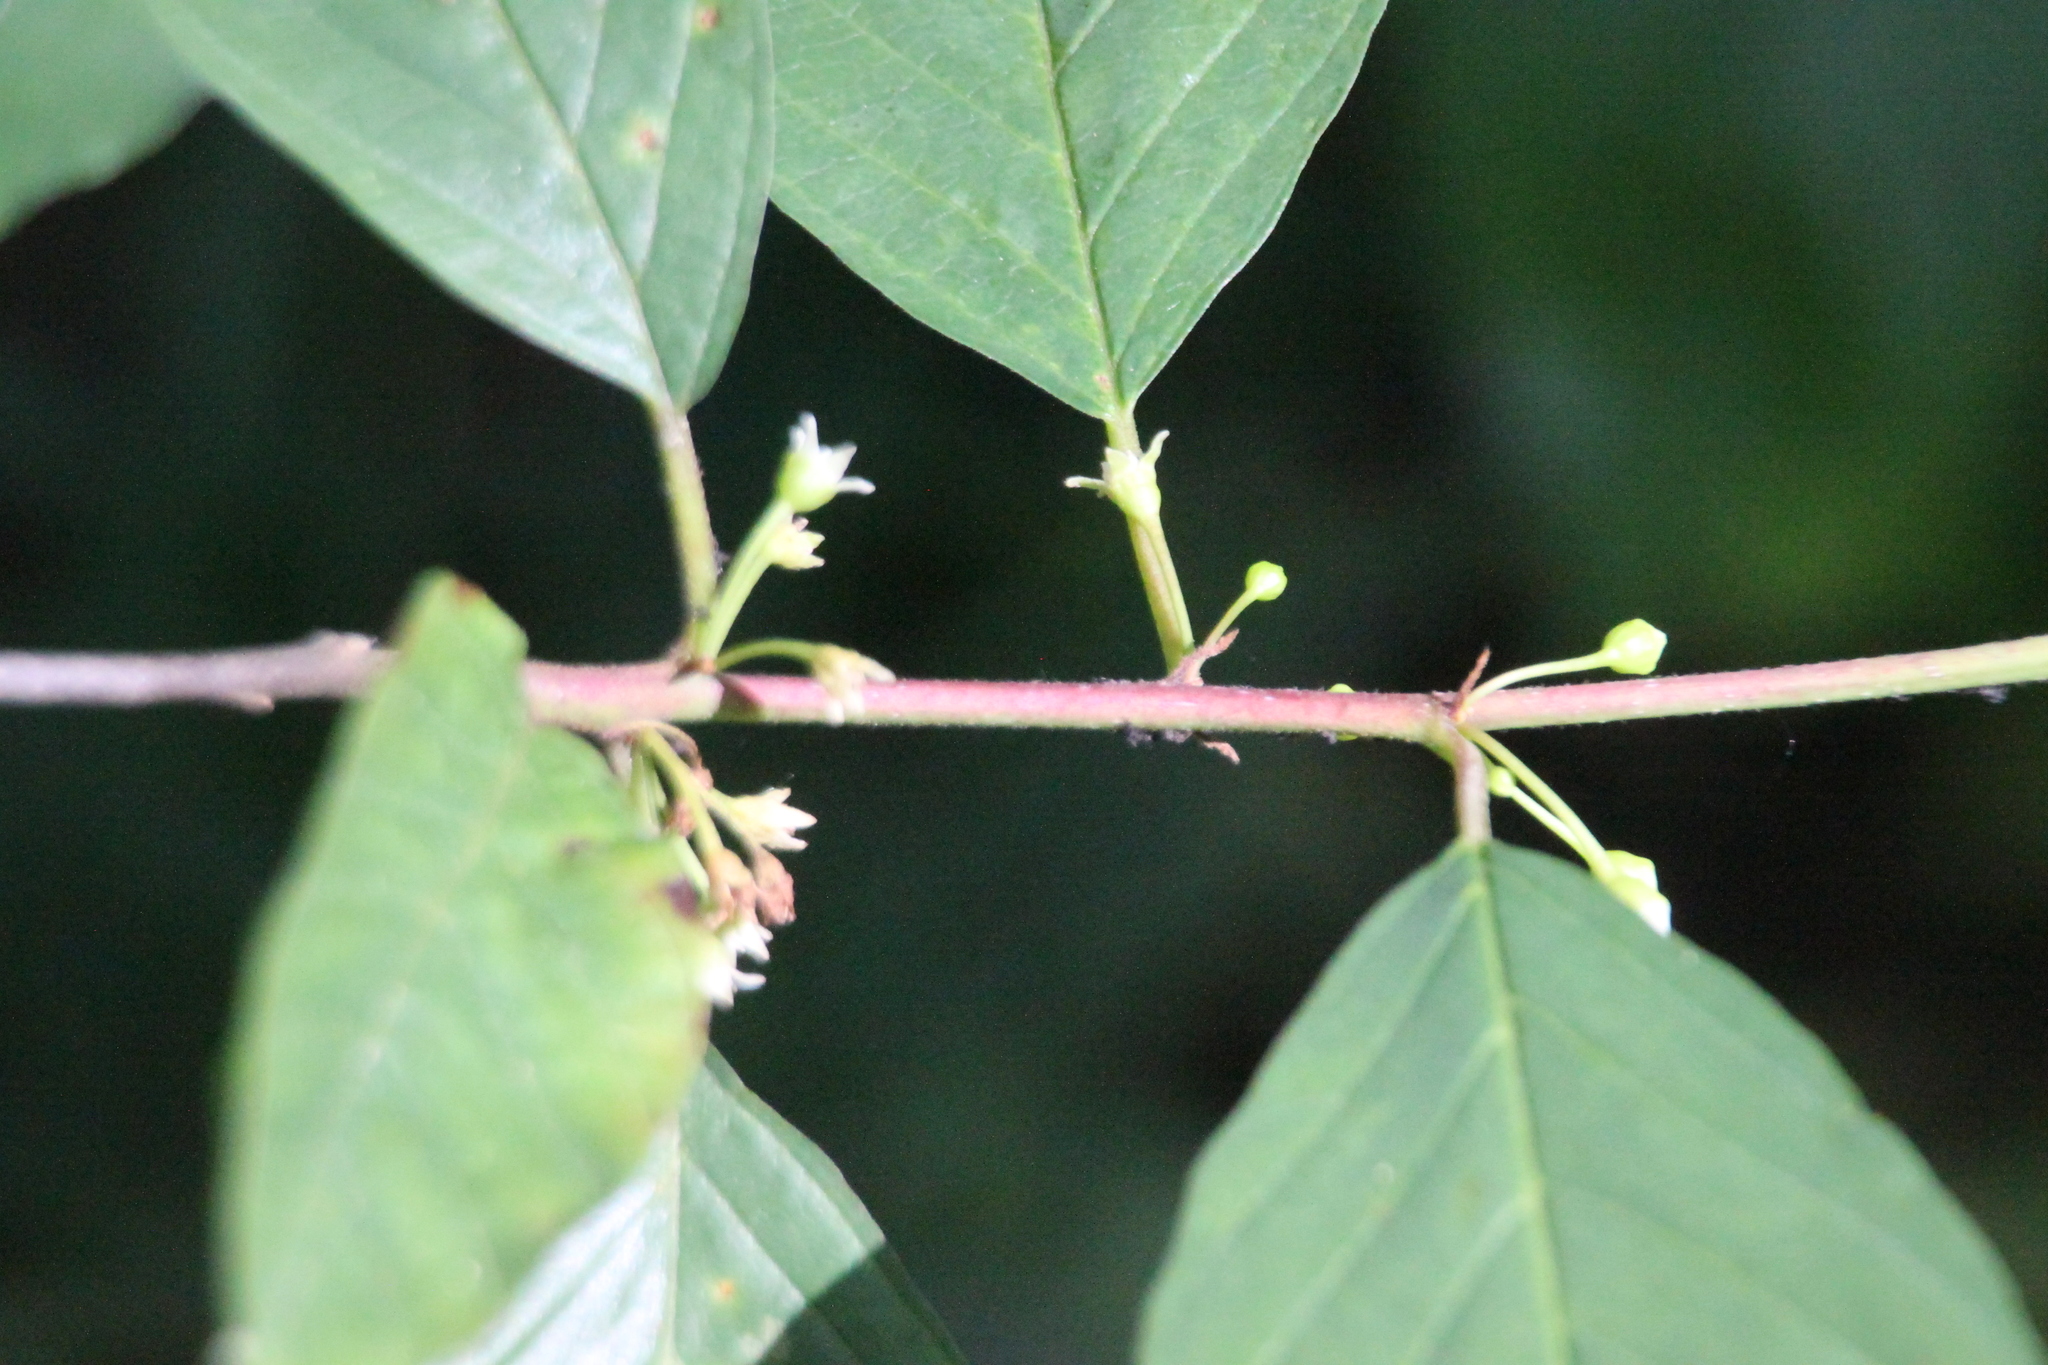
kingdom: Plantae
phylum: Tracheophyta
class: Magnoliopsida
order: Rosales
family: Rhamnaceae
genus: Frangula
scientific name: Frangula alnus
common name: Alder buckthorn
